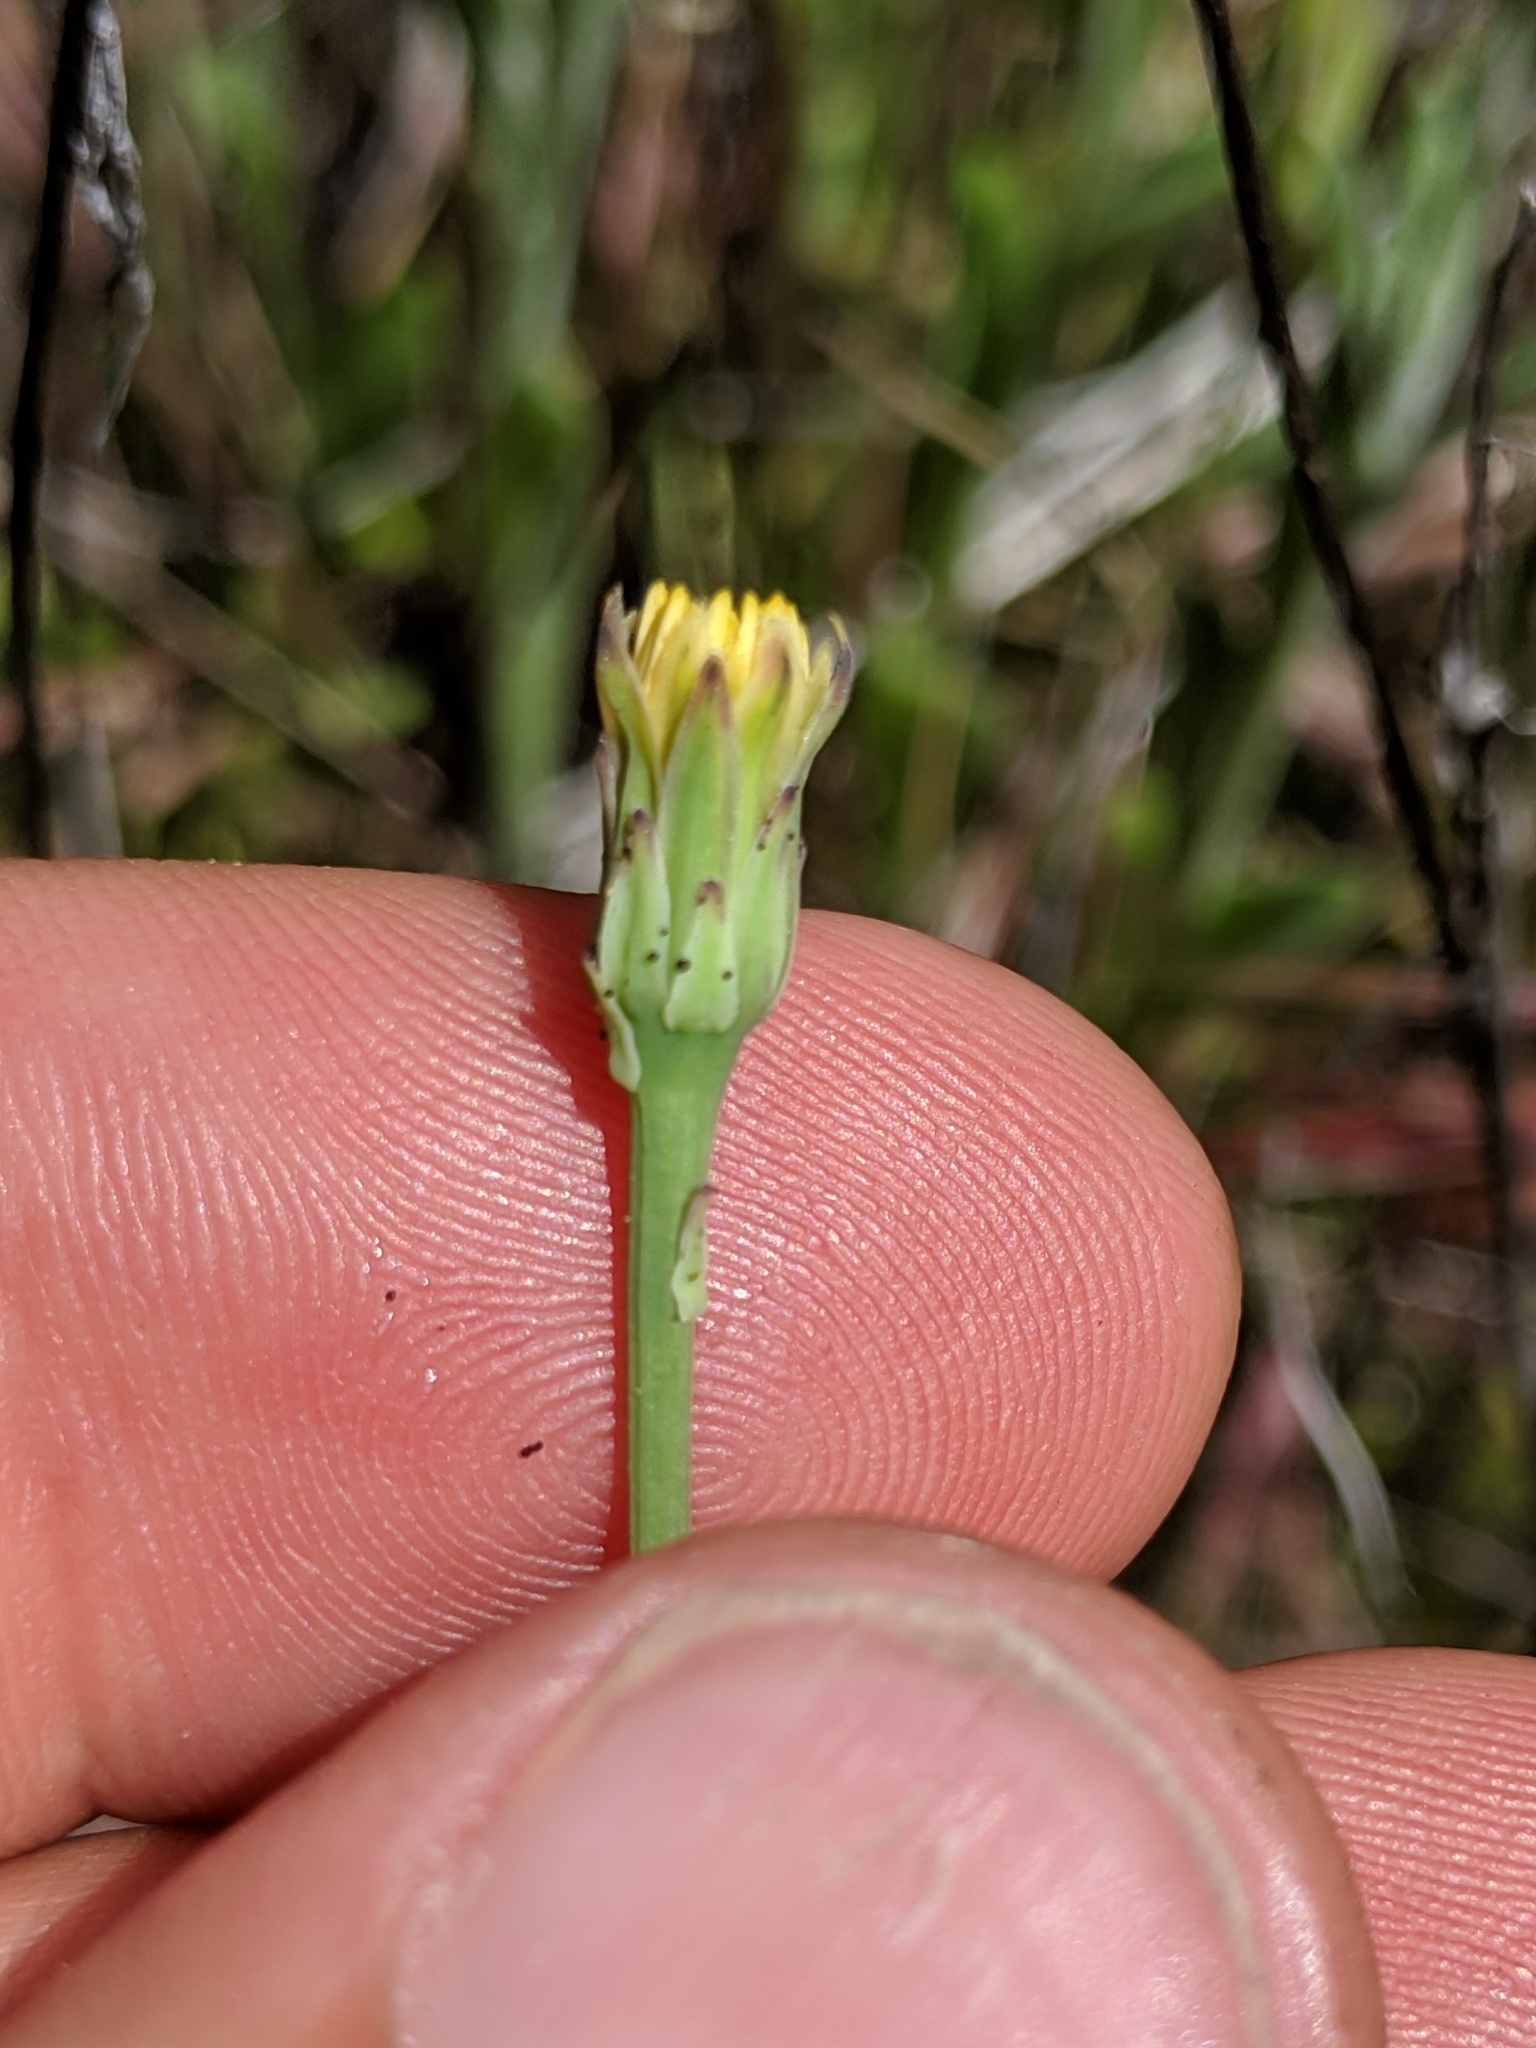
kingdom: Plantae
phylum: Tracheophyta
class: Magnoliopsida
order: Asterales
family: Asteraceae
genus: Hypochaeris
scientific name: Hypochaeris glabra
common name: Smooth catsear
